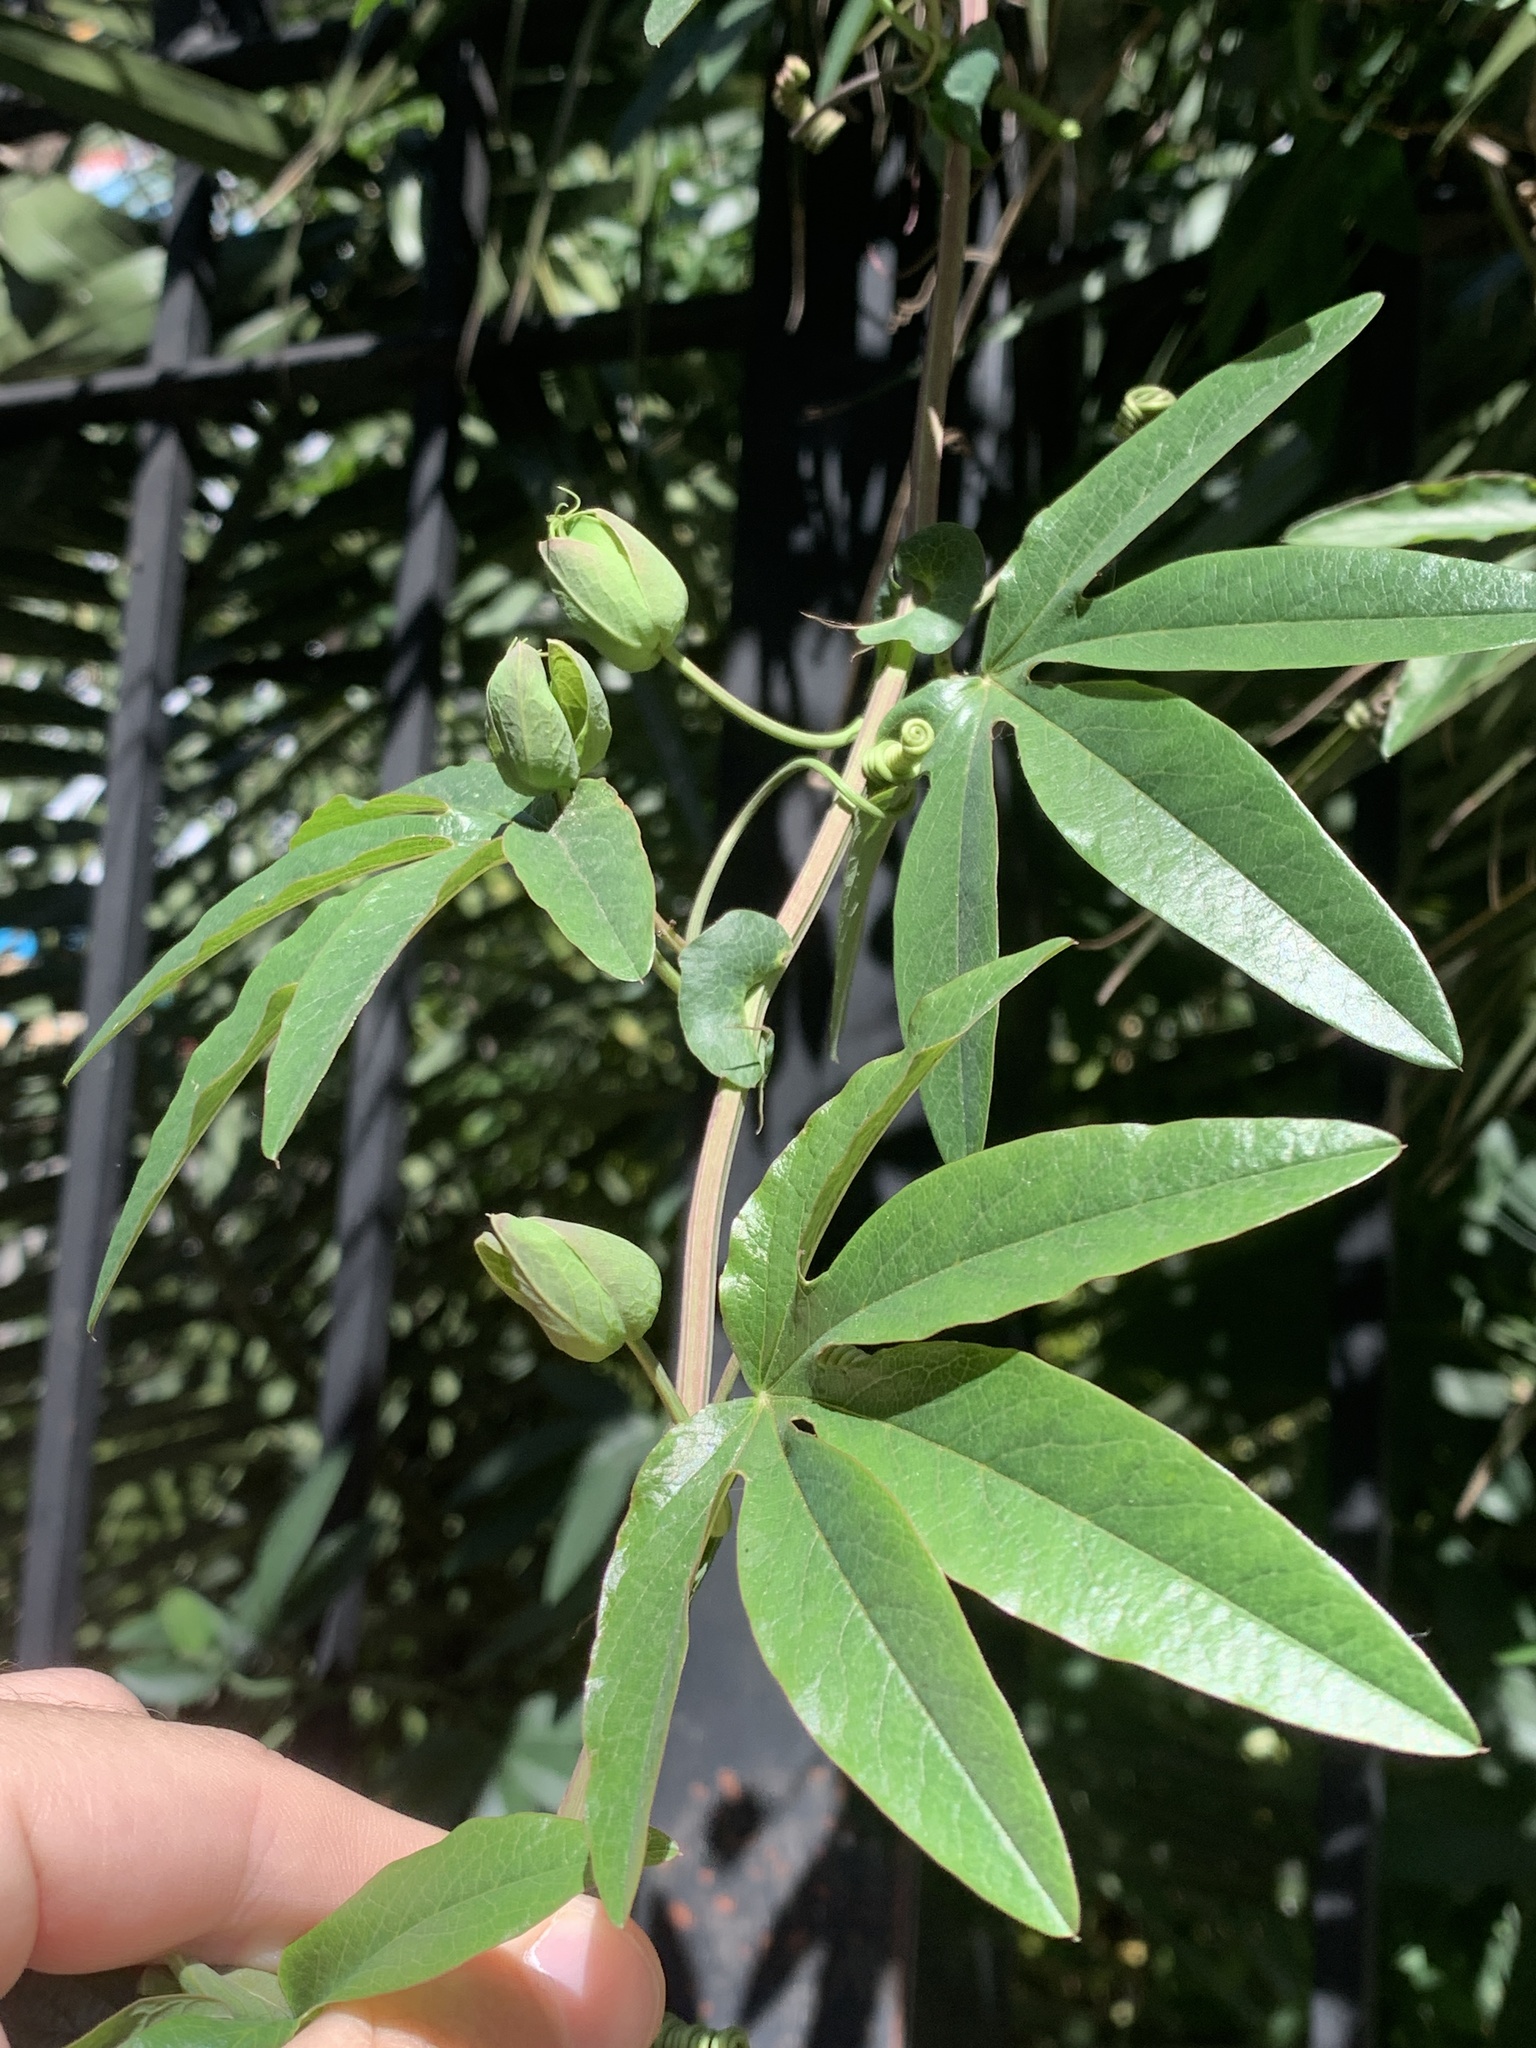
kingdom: Plantae
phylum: Tracheophyta
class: Magnoliopsida
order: Malpighiales
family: Passifloraceae
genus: Passiflora
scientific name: Passiflora caerulea
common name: Blue passionflower
